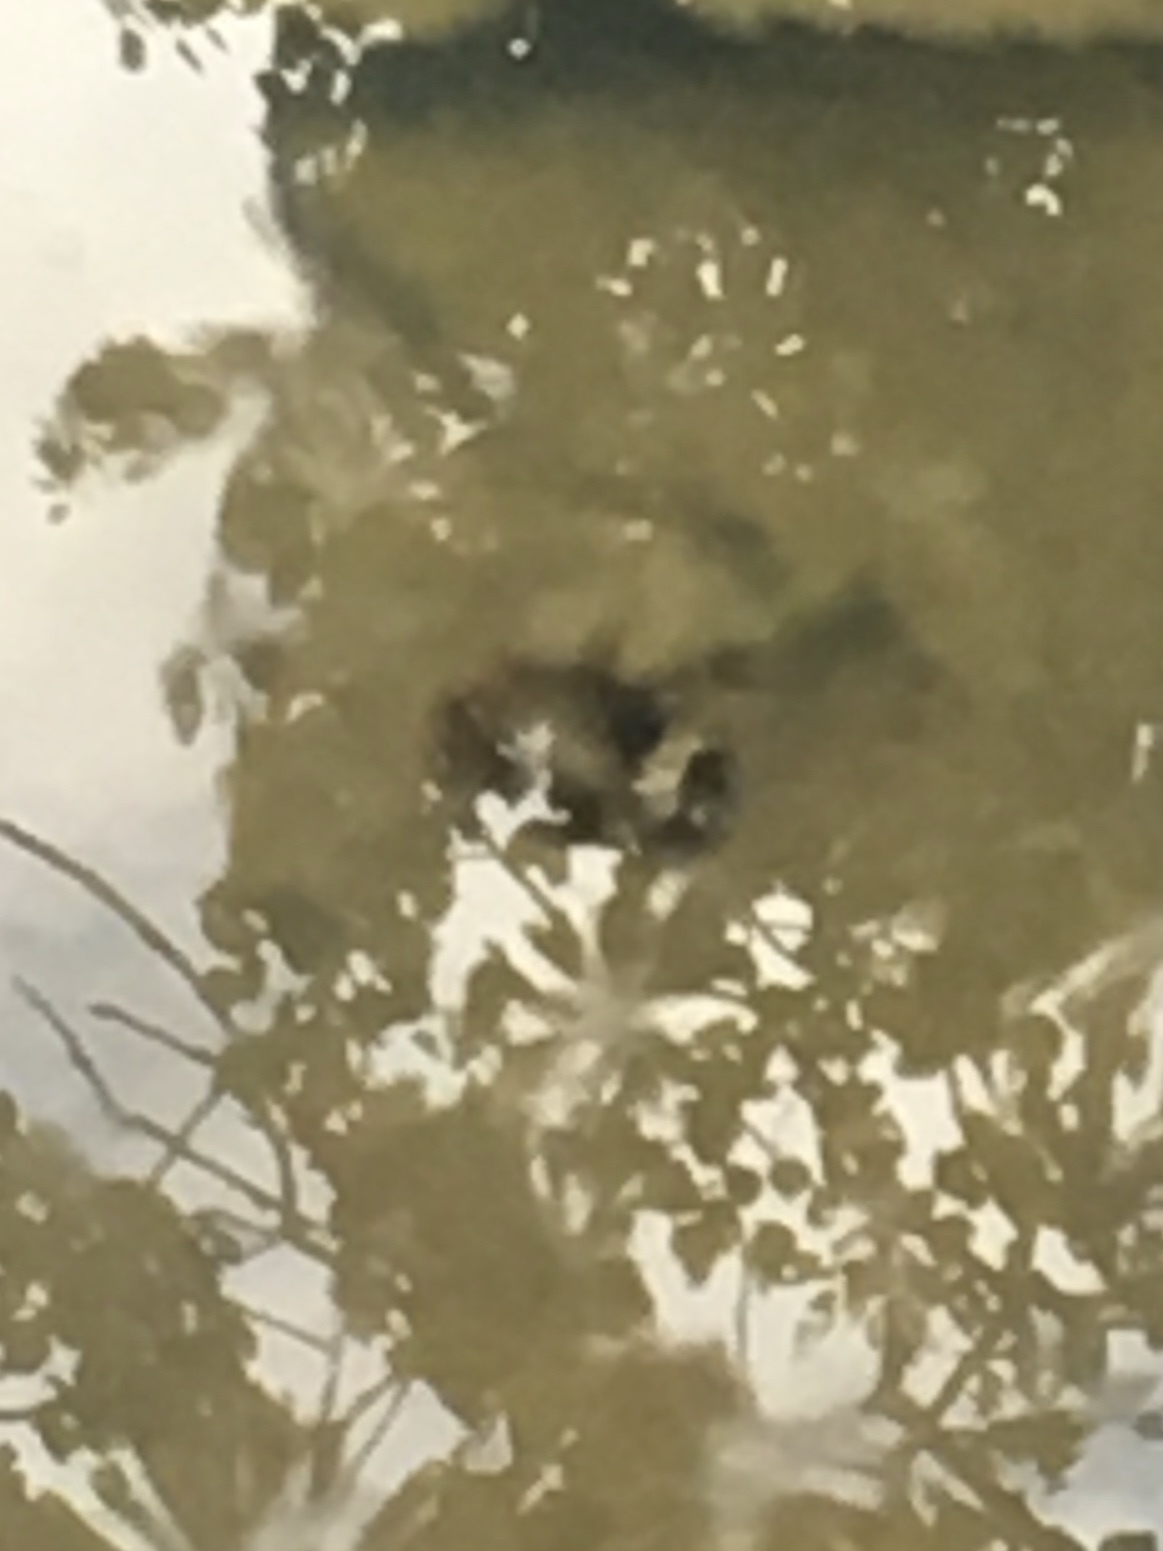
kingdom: Animalia
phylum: Arthropoda
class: Insecta
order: Coleoptera
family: Dytiscidae
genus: Acilius
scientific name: Acilius
